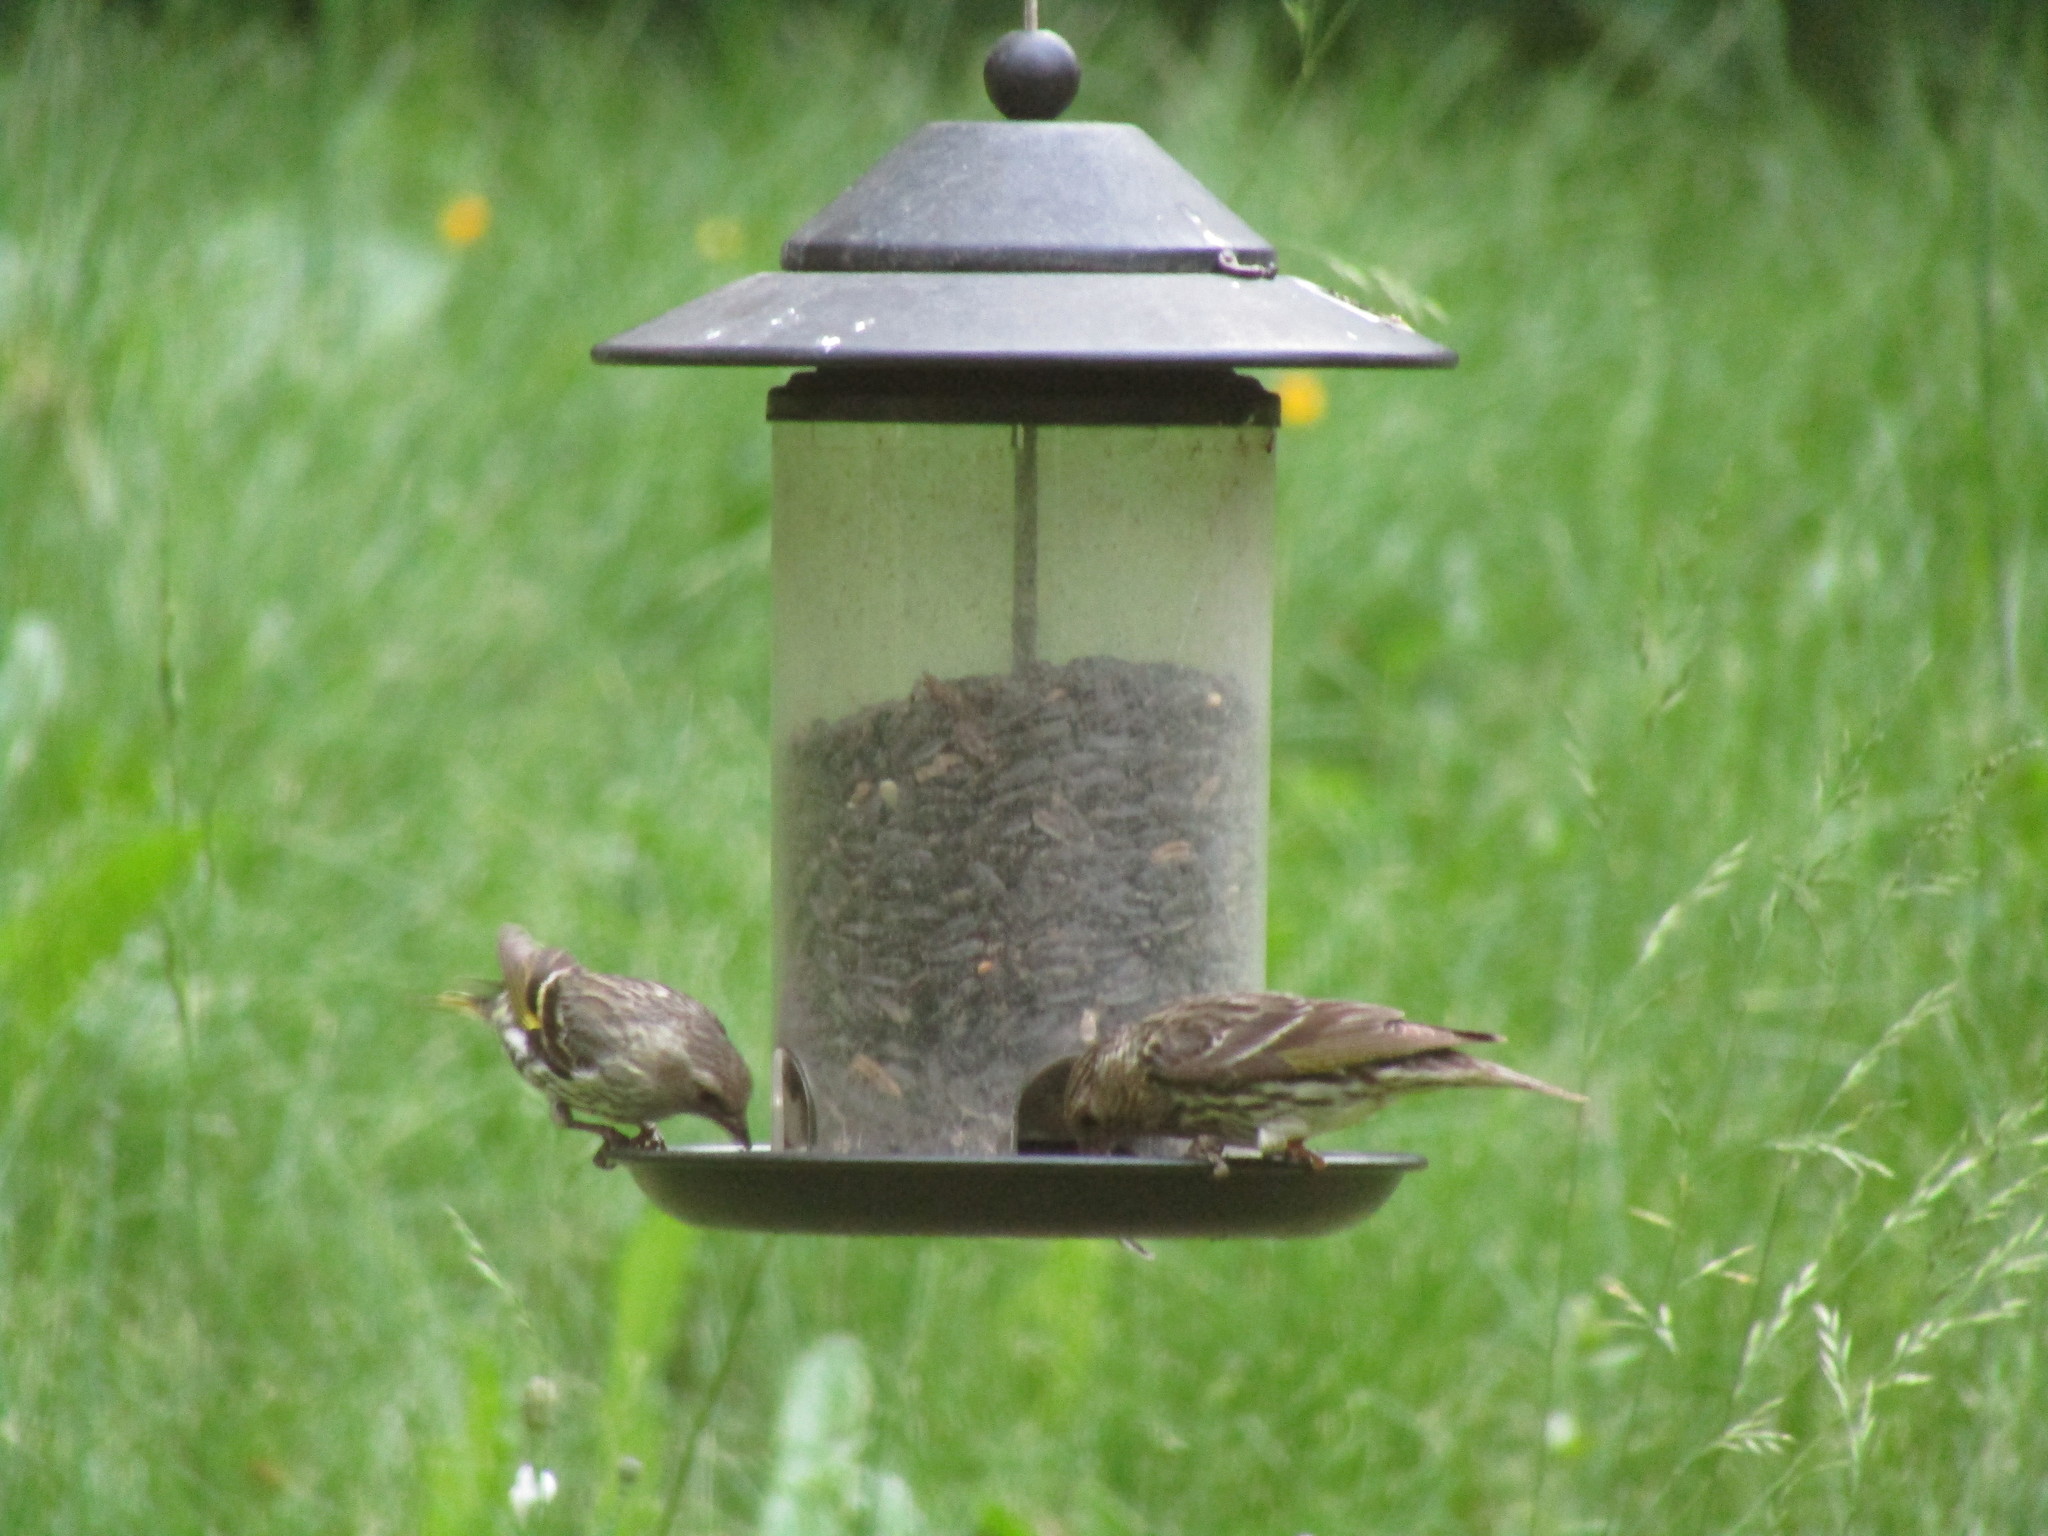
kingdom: Animalia
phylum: Chordata
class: Aves
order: Passeriformes
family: Fringillidae
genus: Spinus
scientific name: Spinus pinus
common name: Pine siskin
